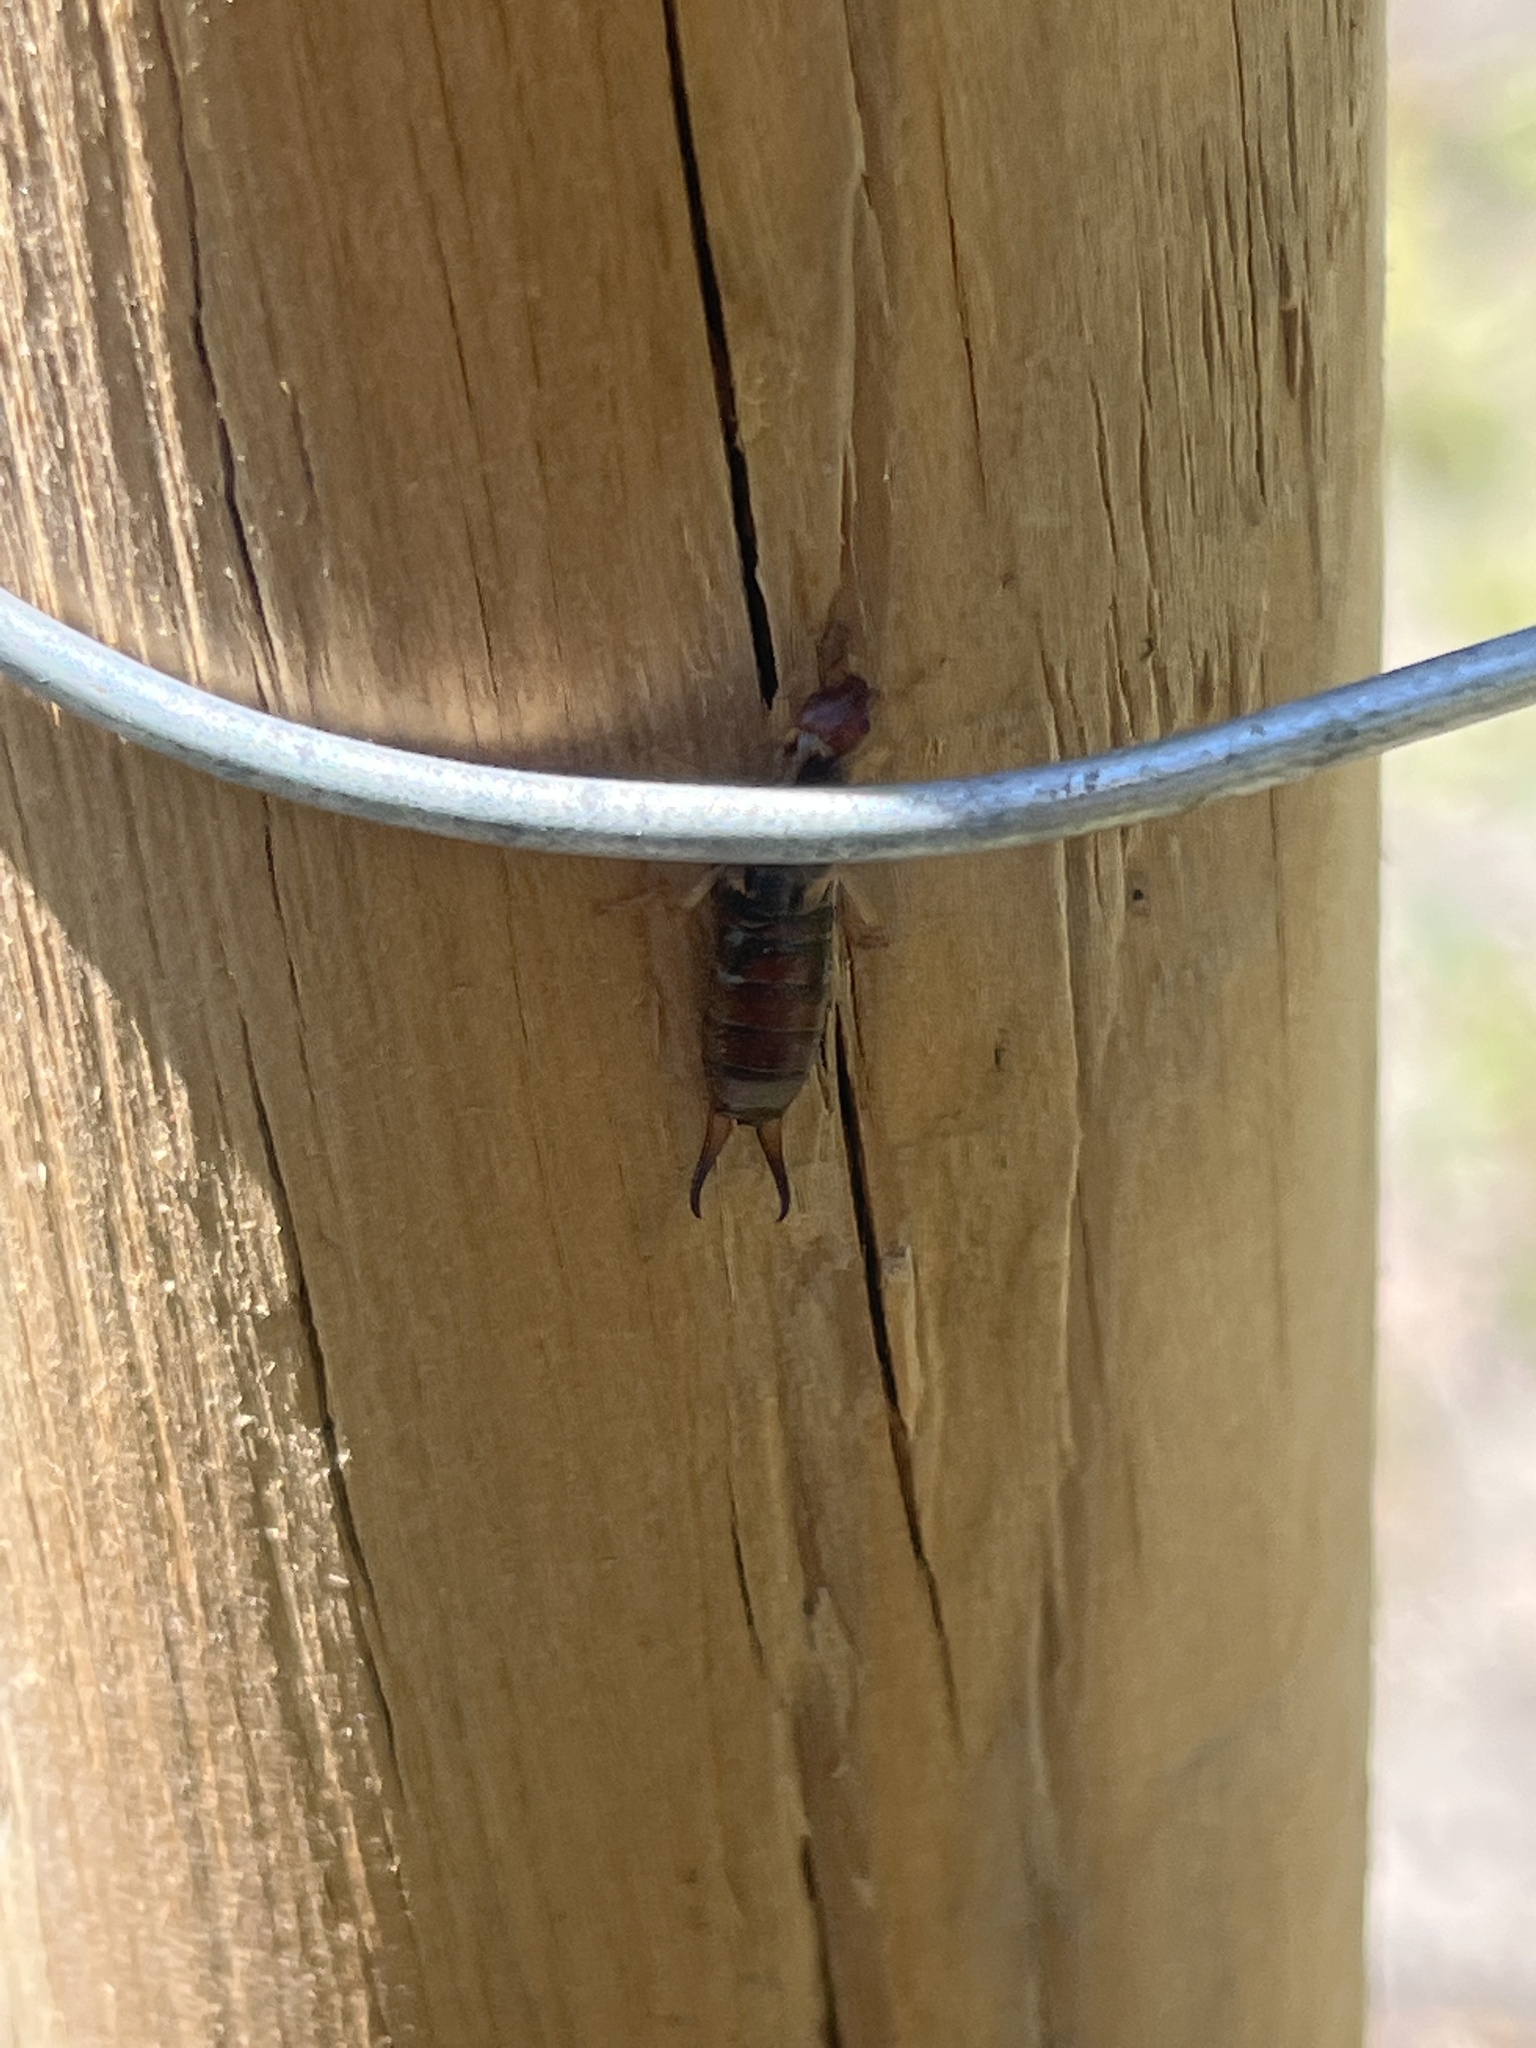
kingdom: Animalia
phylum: Arthropoda
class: Insecta
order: Dermaptera
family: Forficulidae
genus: Forficula
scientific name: Forficula dentata
